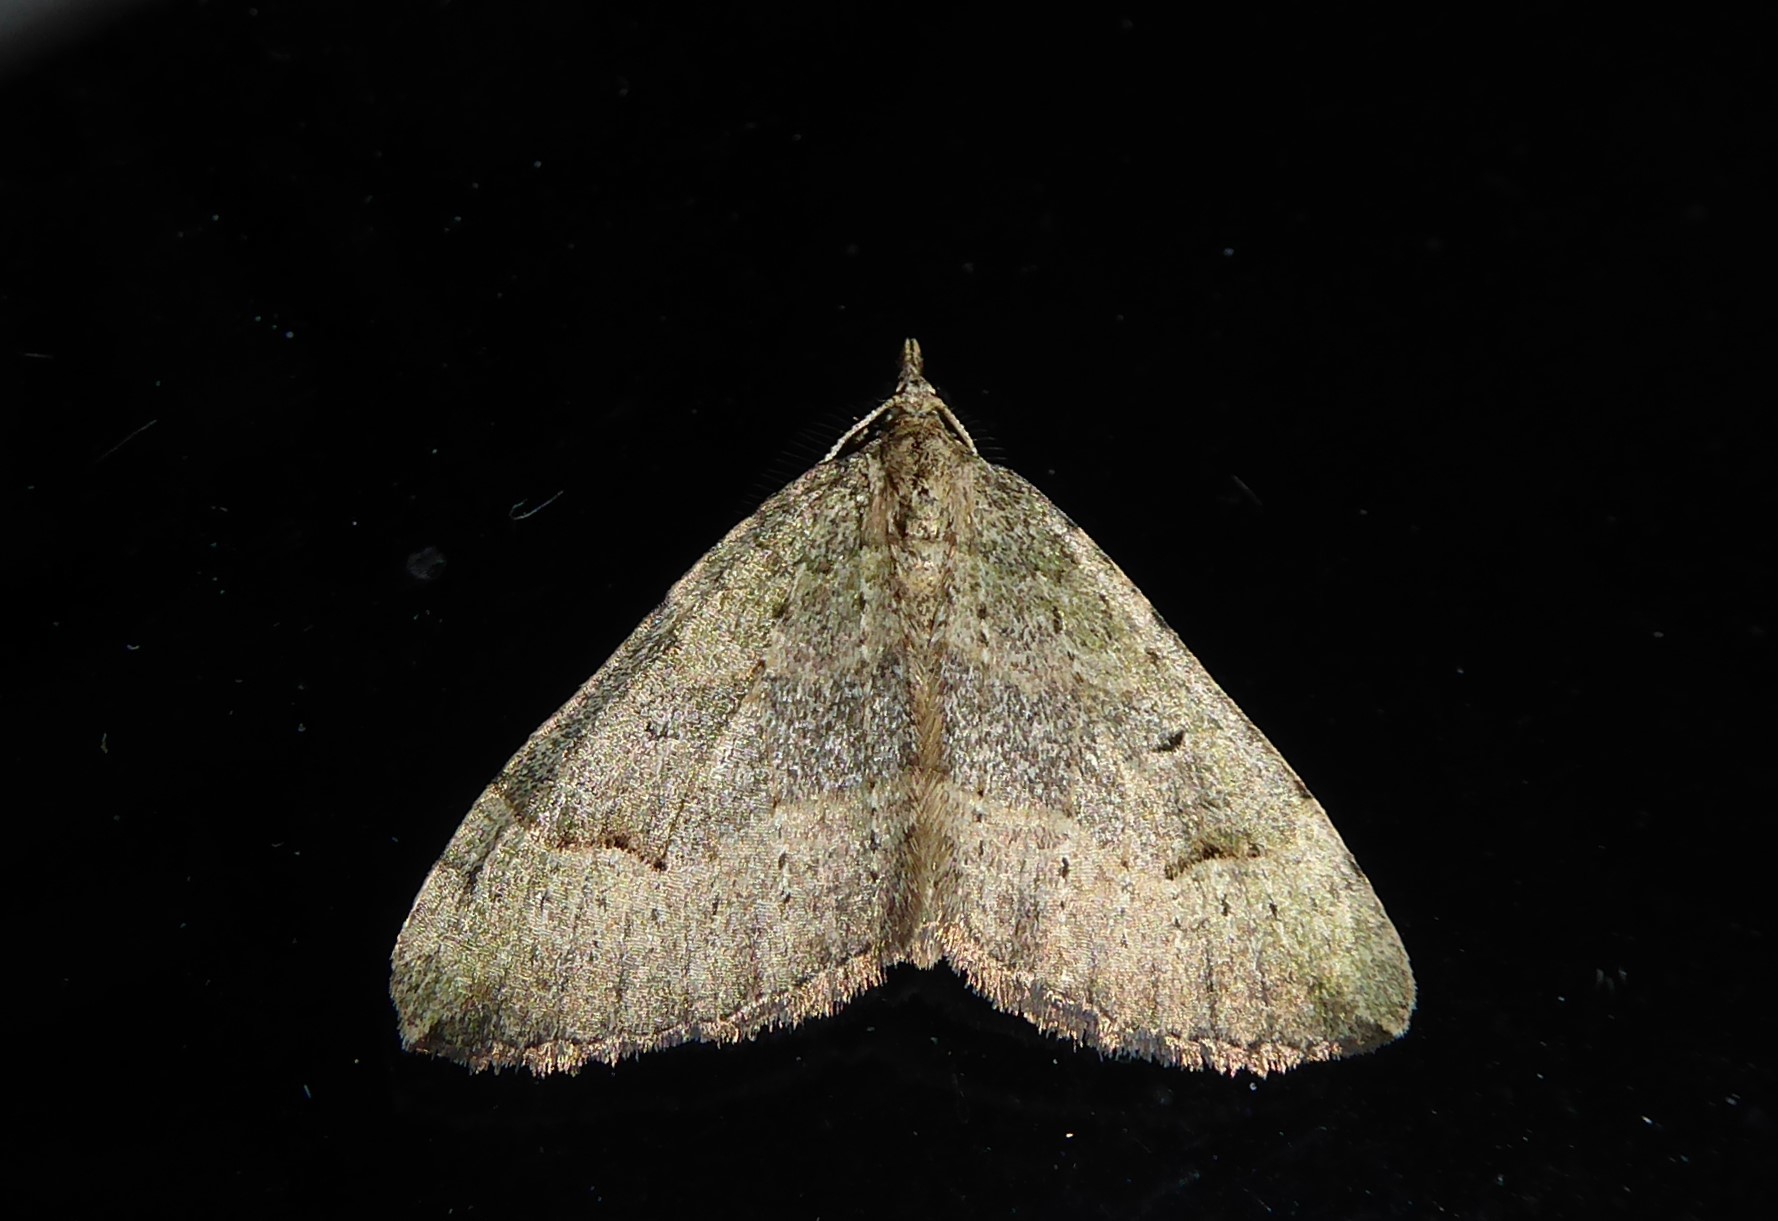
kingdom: Animalia
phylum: Arthropoda
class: Insecta
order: Lepidoptera
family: Geometridae
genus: Epyaxa
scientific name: Epyaxa rosearia
